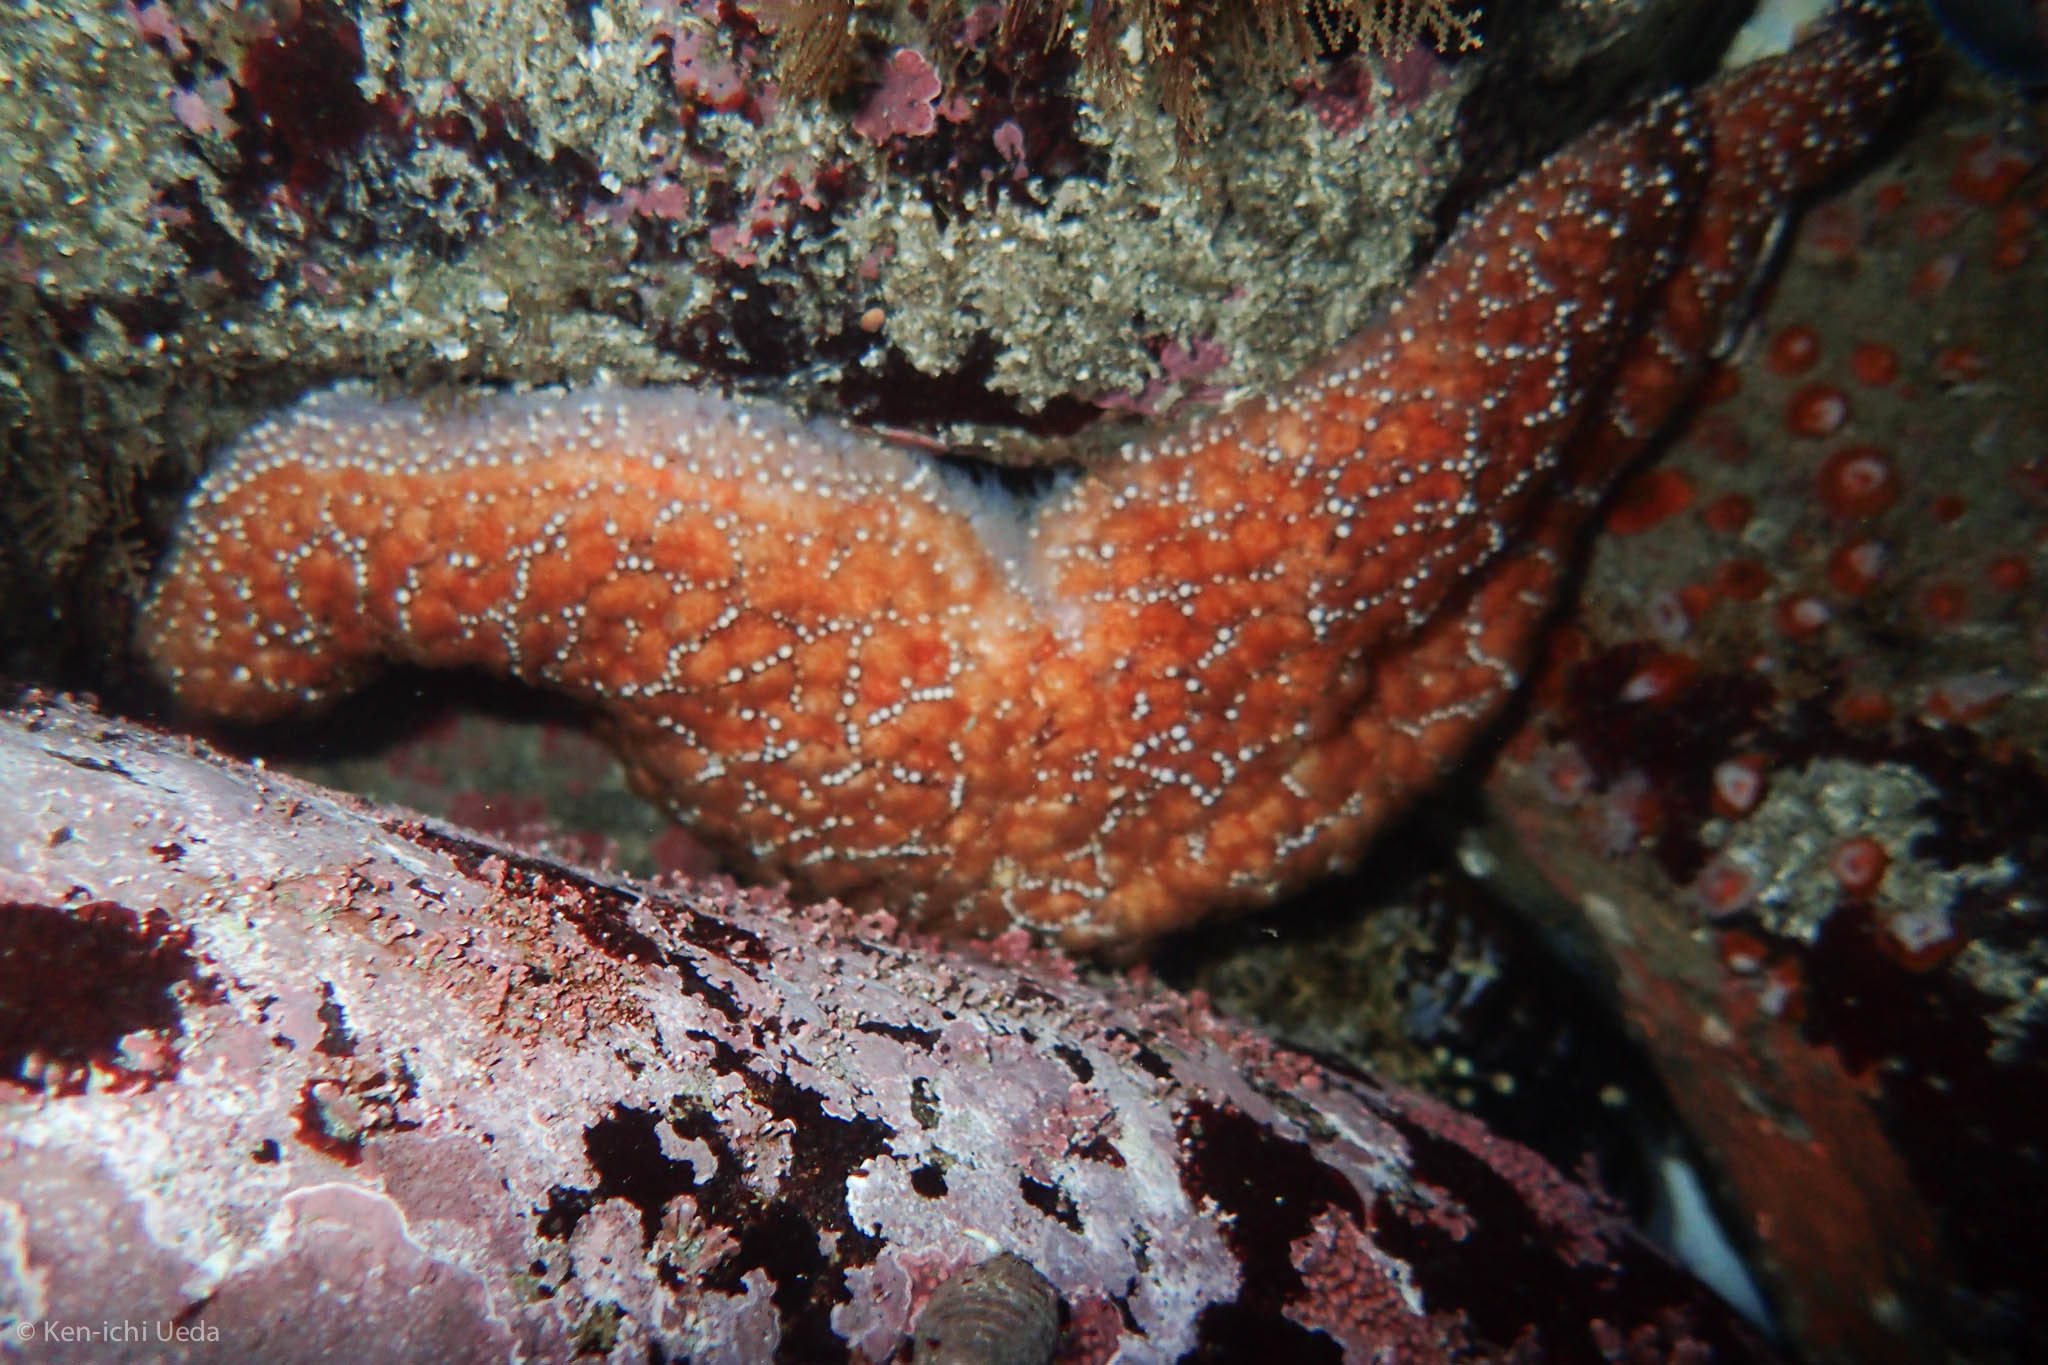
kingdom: Animalia
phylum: Echinodermata
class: Asteroidea
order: Forcipulatida
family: Asteriidae
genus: Pisaster
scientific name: Pisaster ochraceus
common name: Ochre stars
